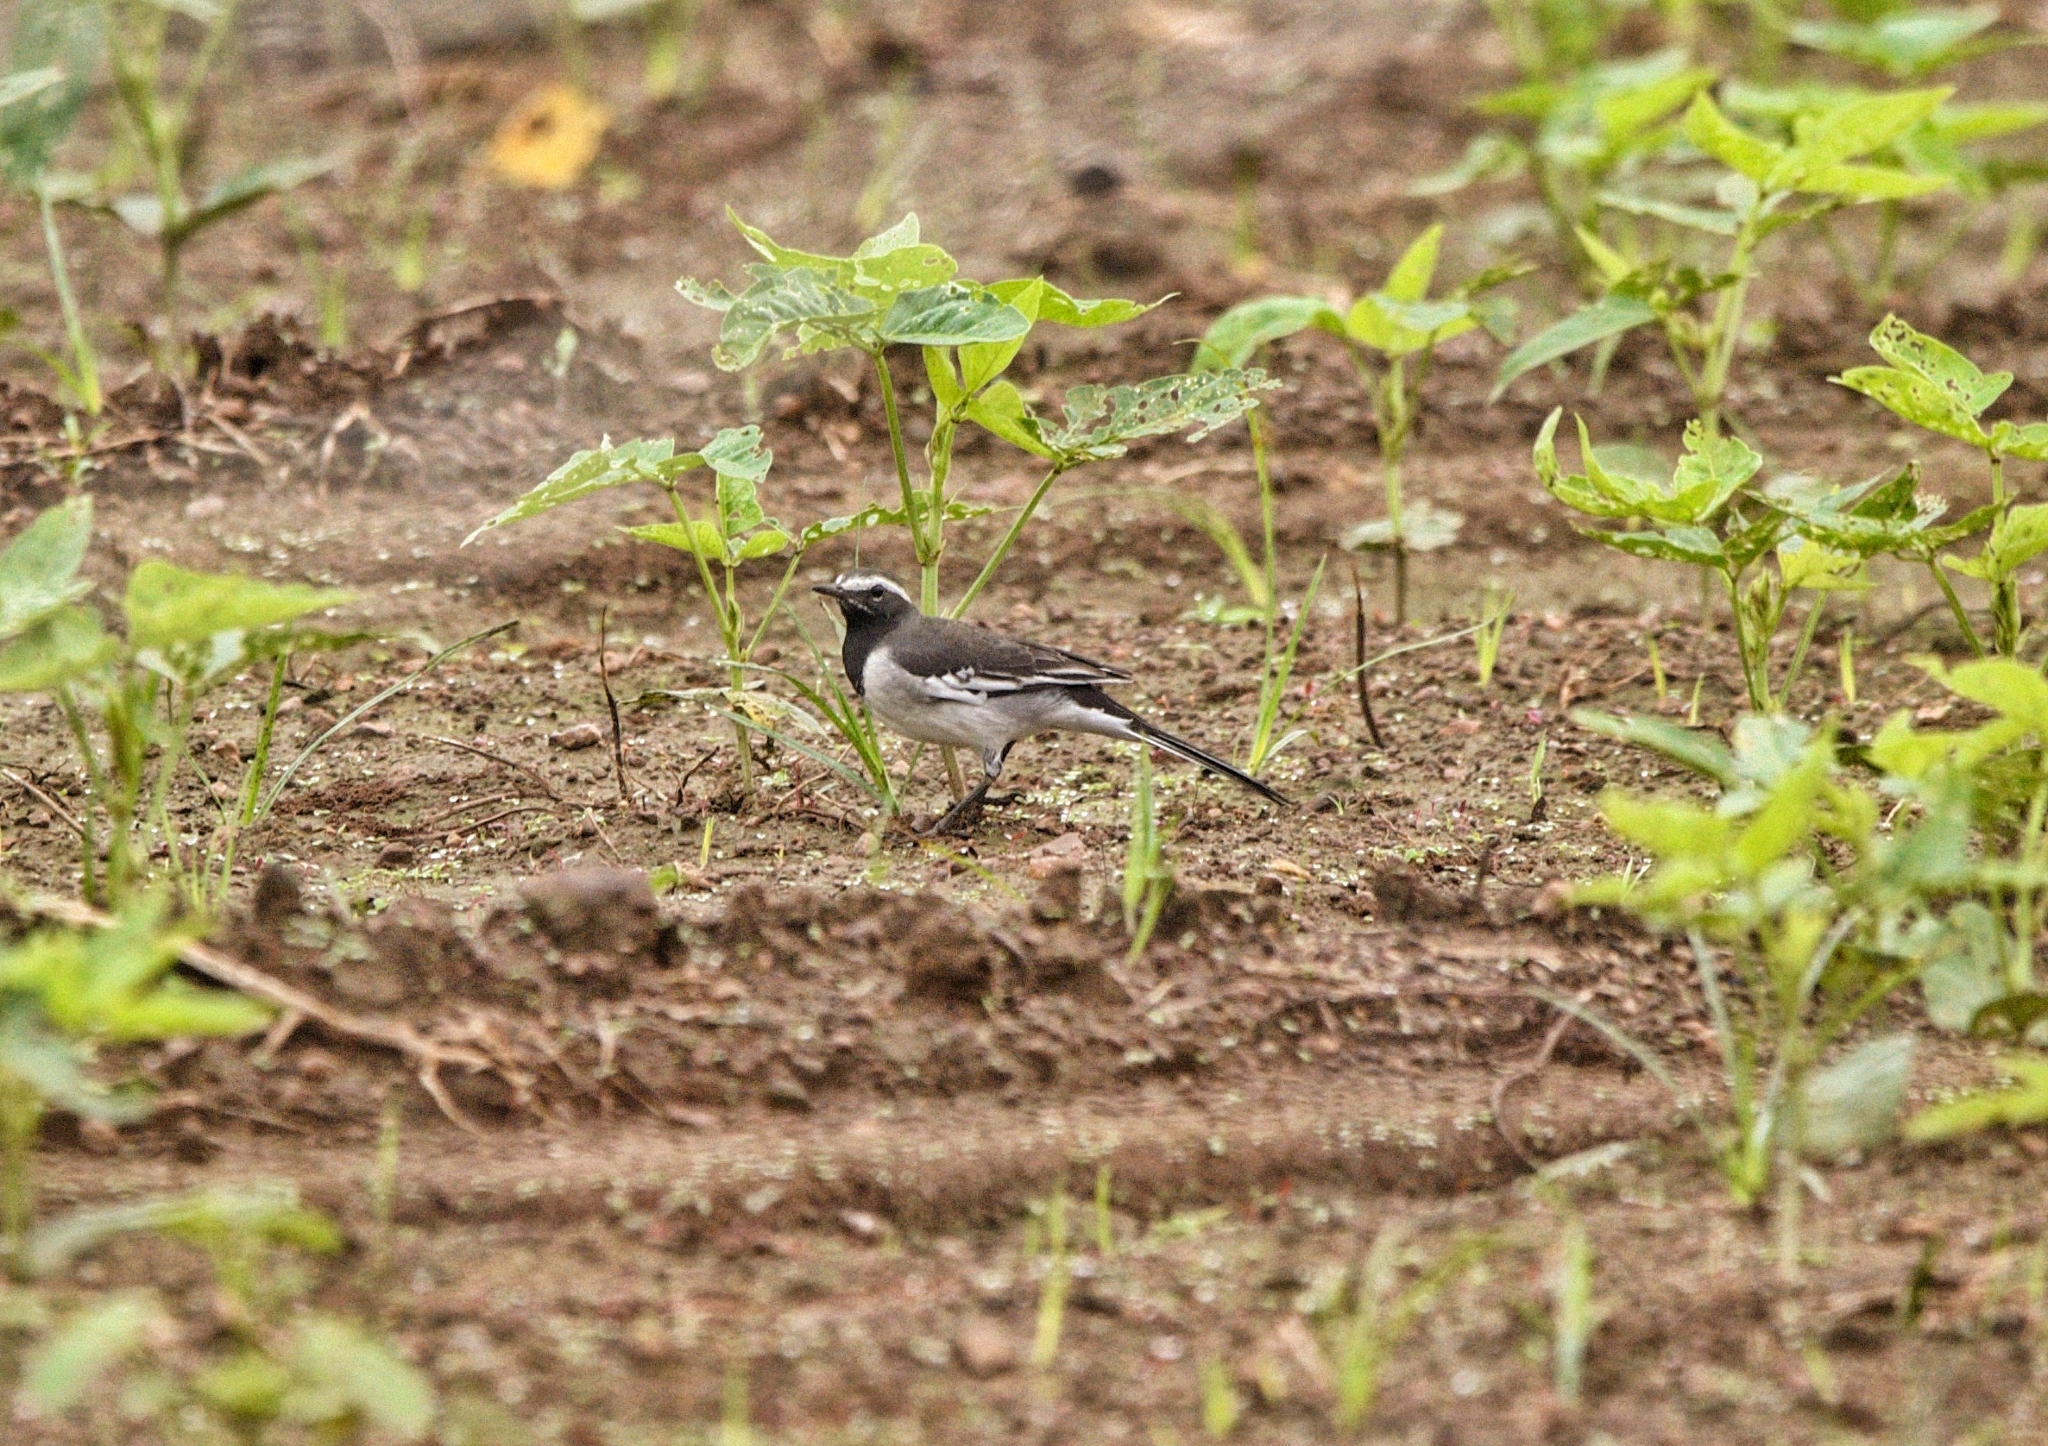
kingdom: Animalia
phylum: Chordata
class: Aves
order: Passeriformes
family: Motacillidae
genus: Motacilla
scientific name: Motacilla maderaspatensis
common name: White-browed wagtail
